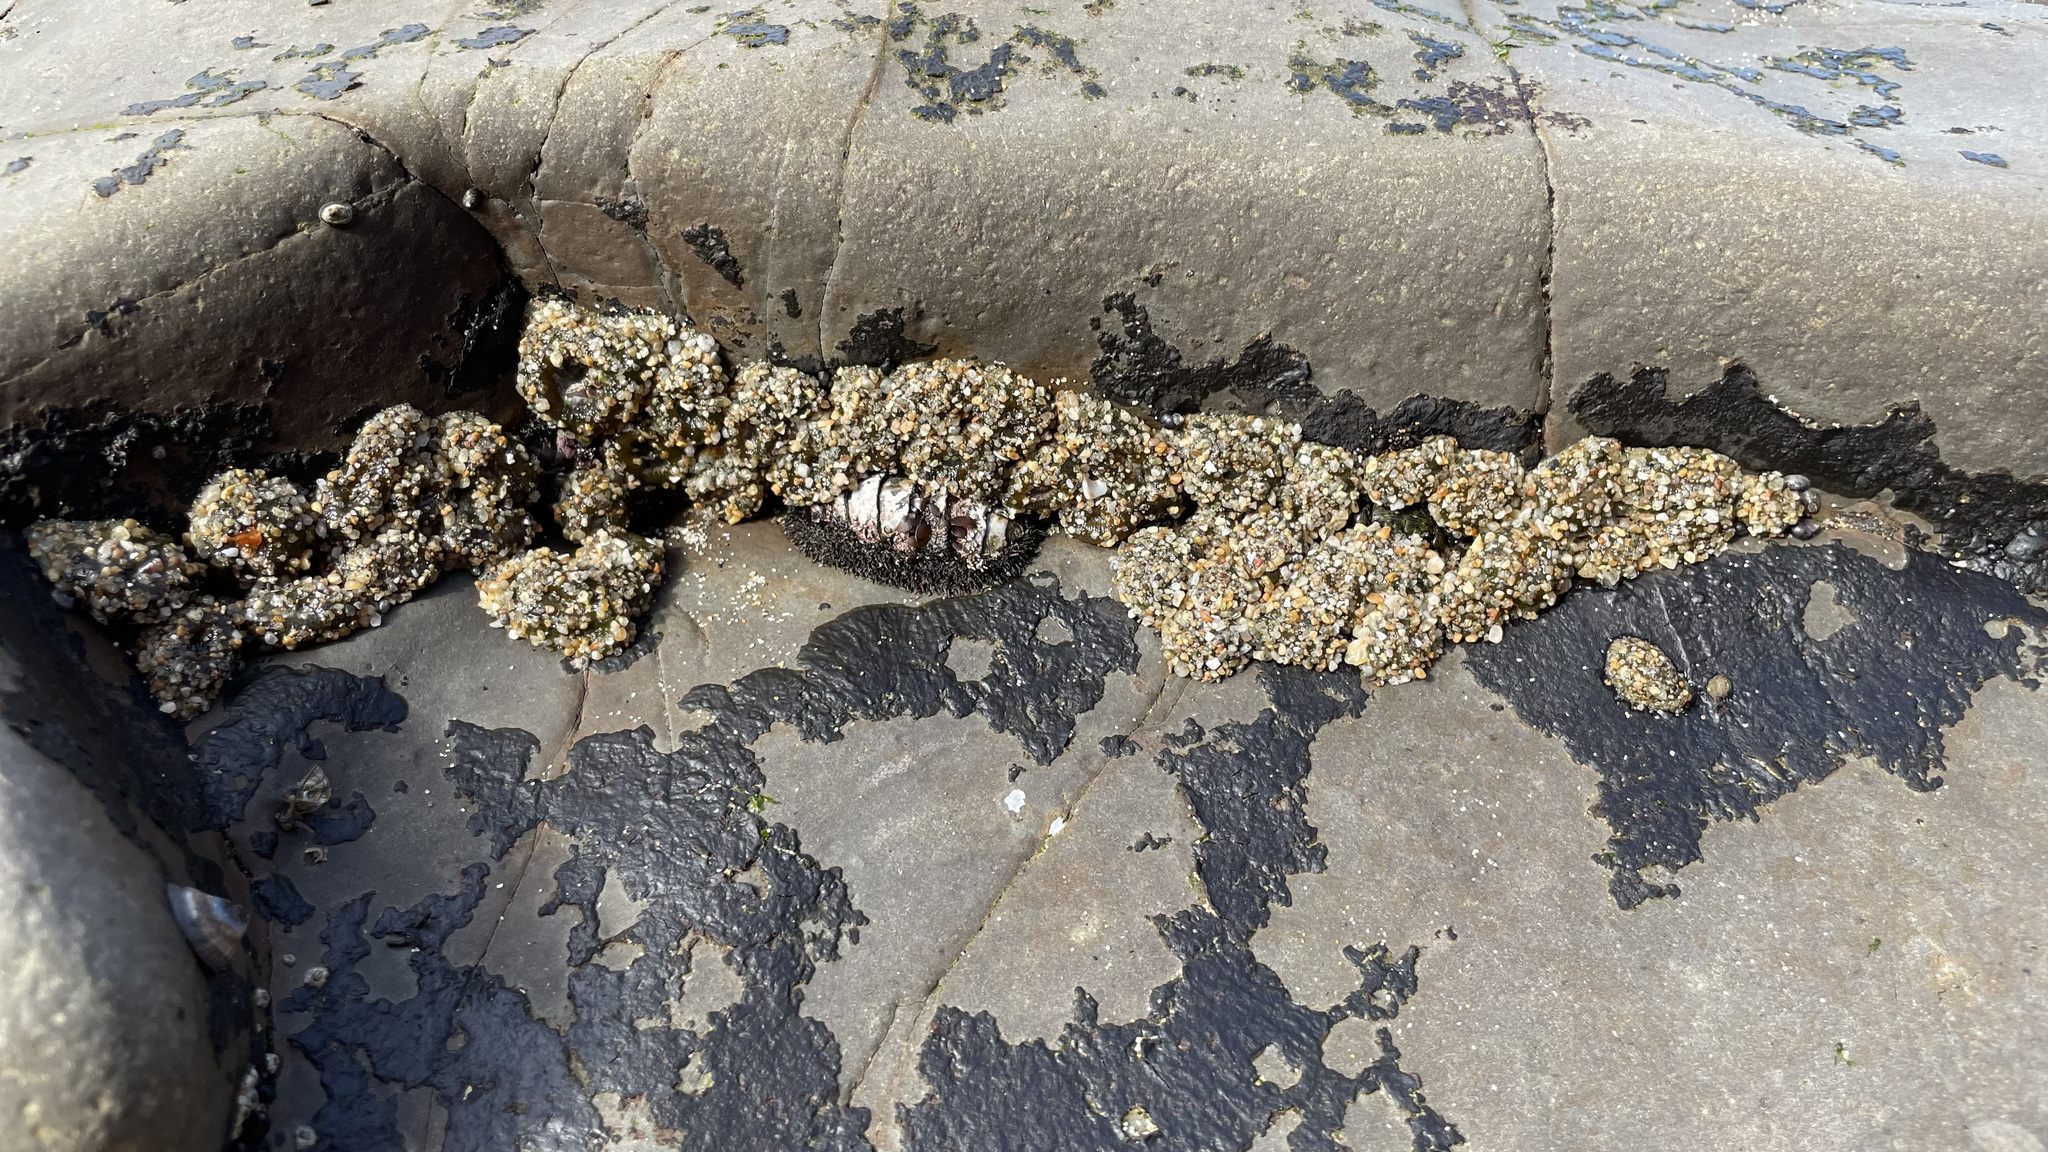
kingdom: Animalia
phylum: Cnidaria
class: Anthozoa
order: Actiniaria
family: Actiniidae
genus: Anthopleura
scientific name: Anthopleura elegantissima
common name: Clonal anemone
